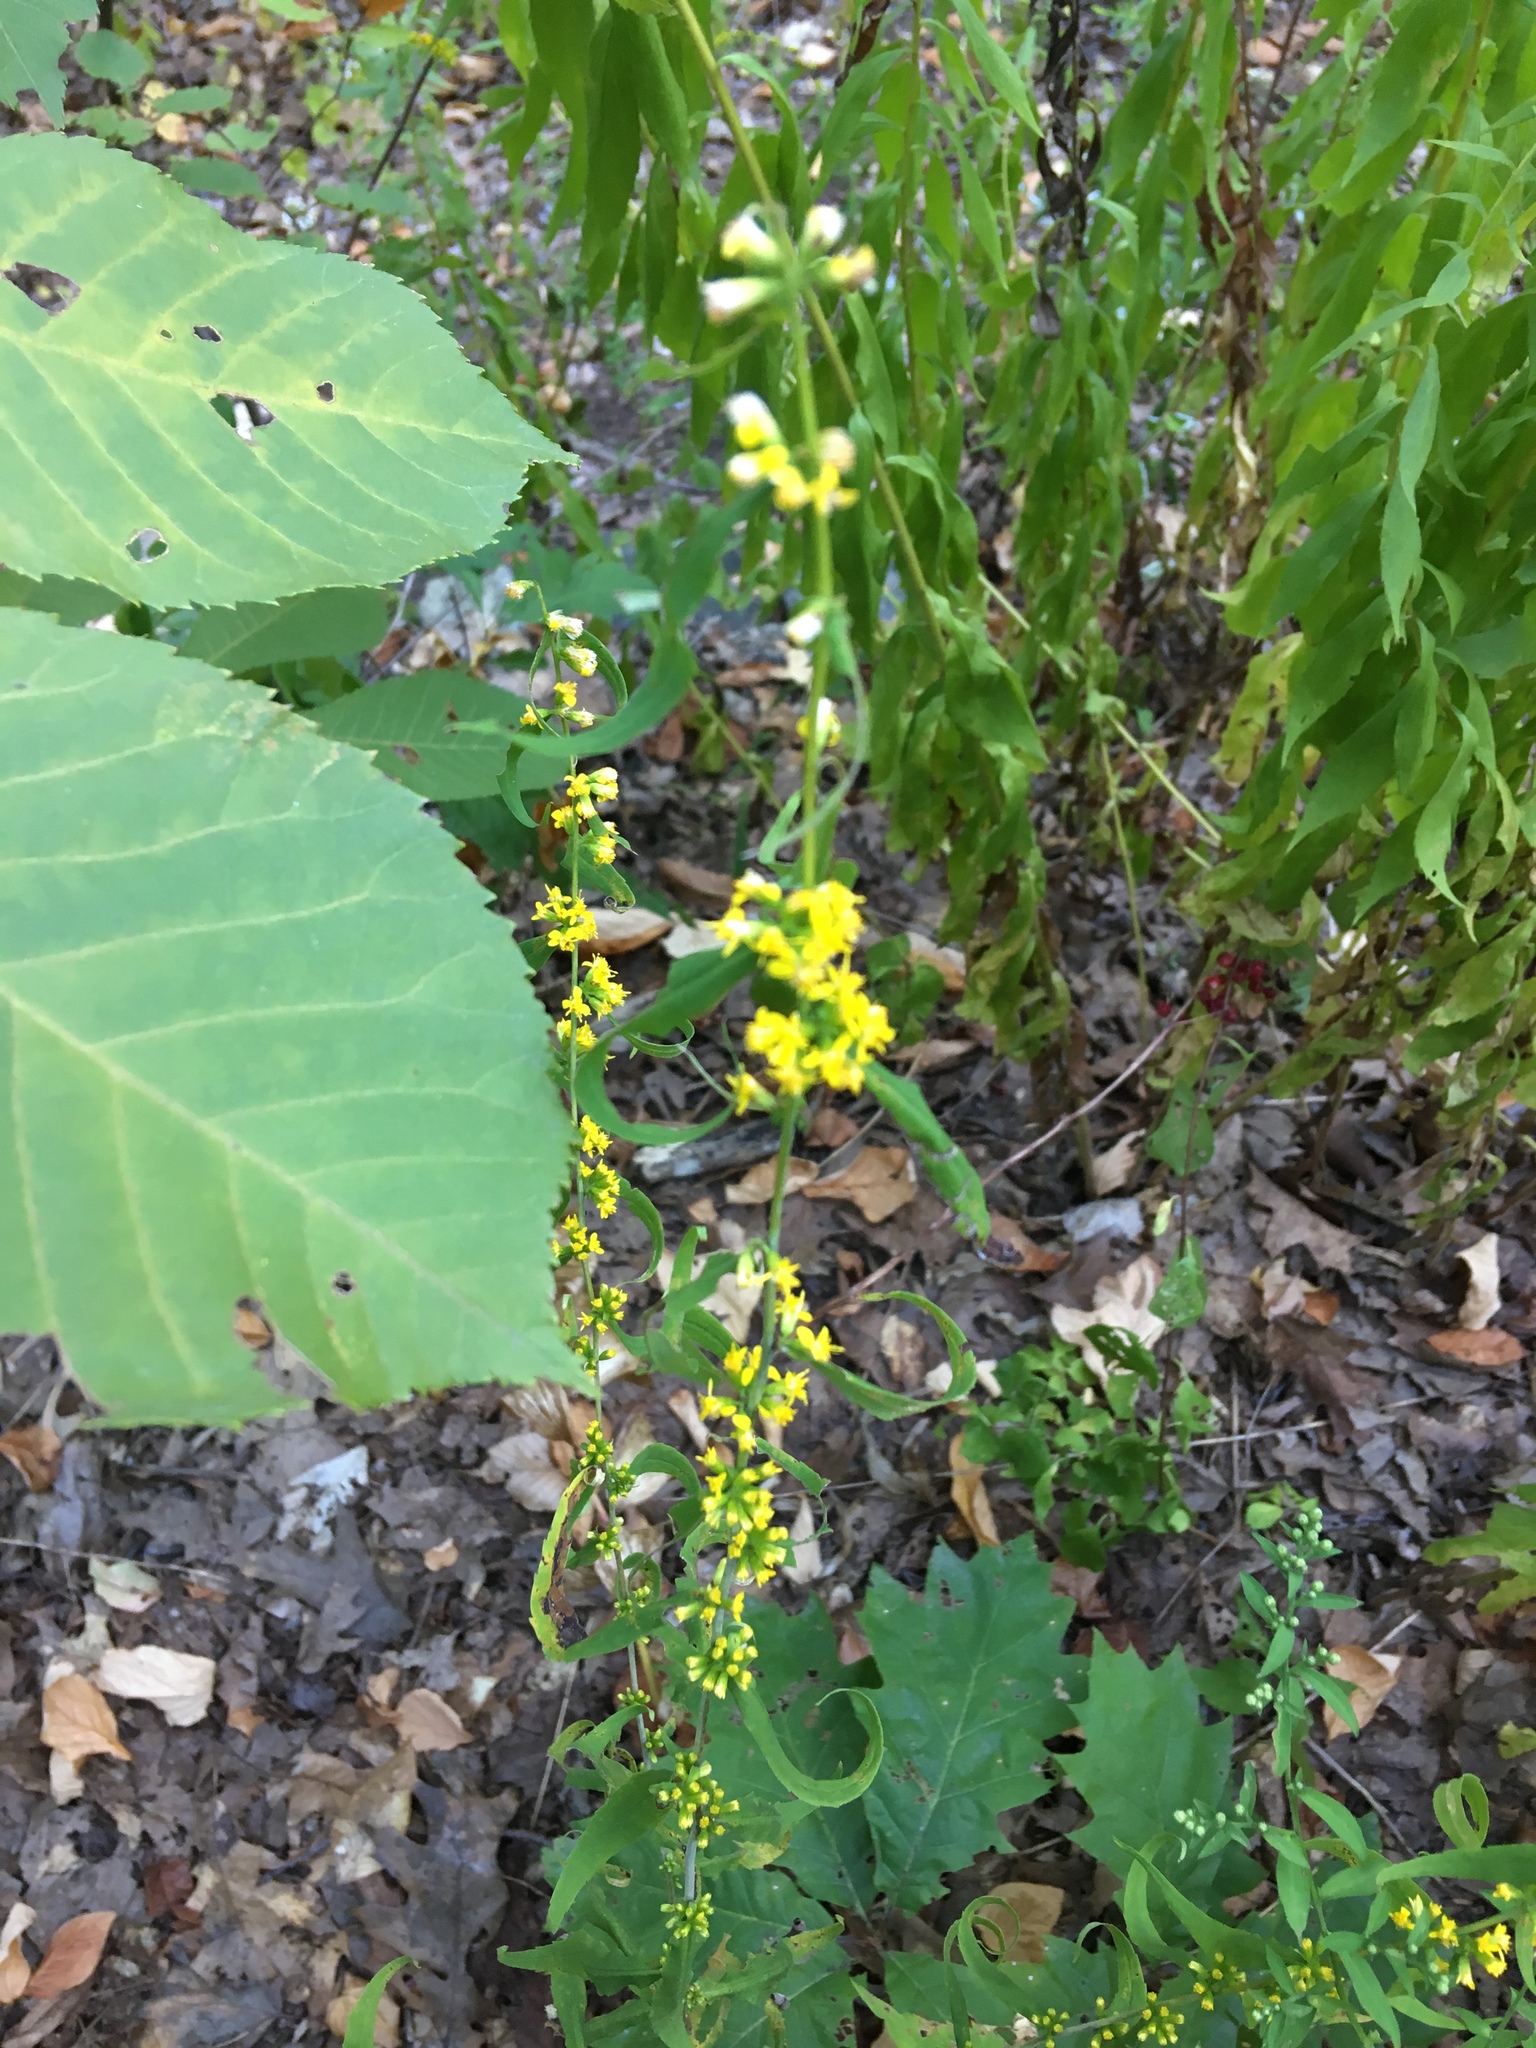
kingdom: Plantae
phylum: Tracheophyta
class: Magnoliopsida
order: Asterales
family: Asteraceae
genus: Solidago
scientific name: Solidago caesia
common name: Woodland goldenrod
